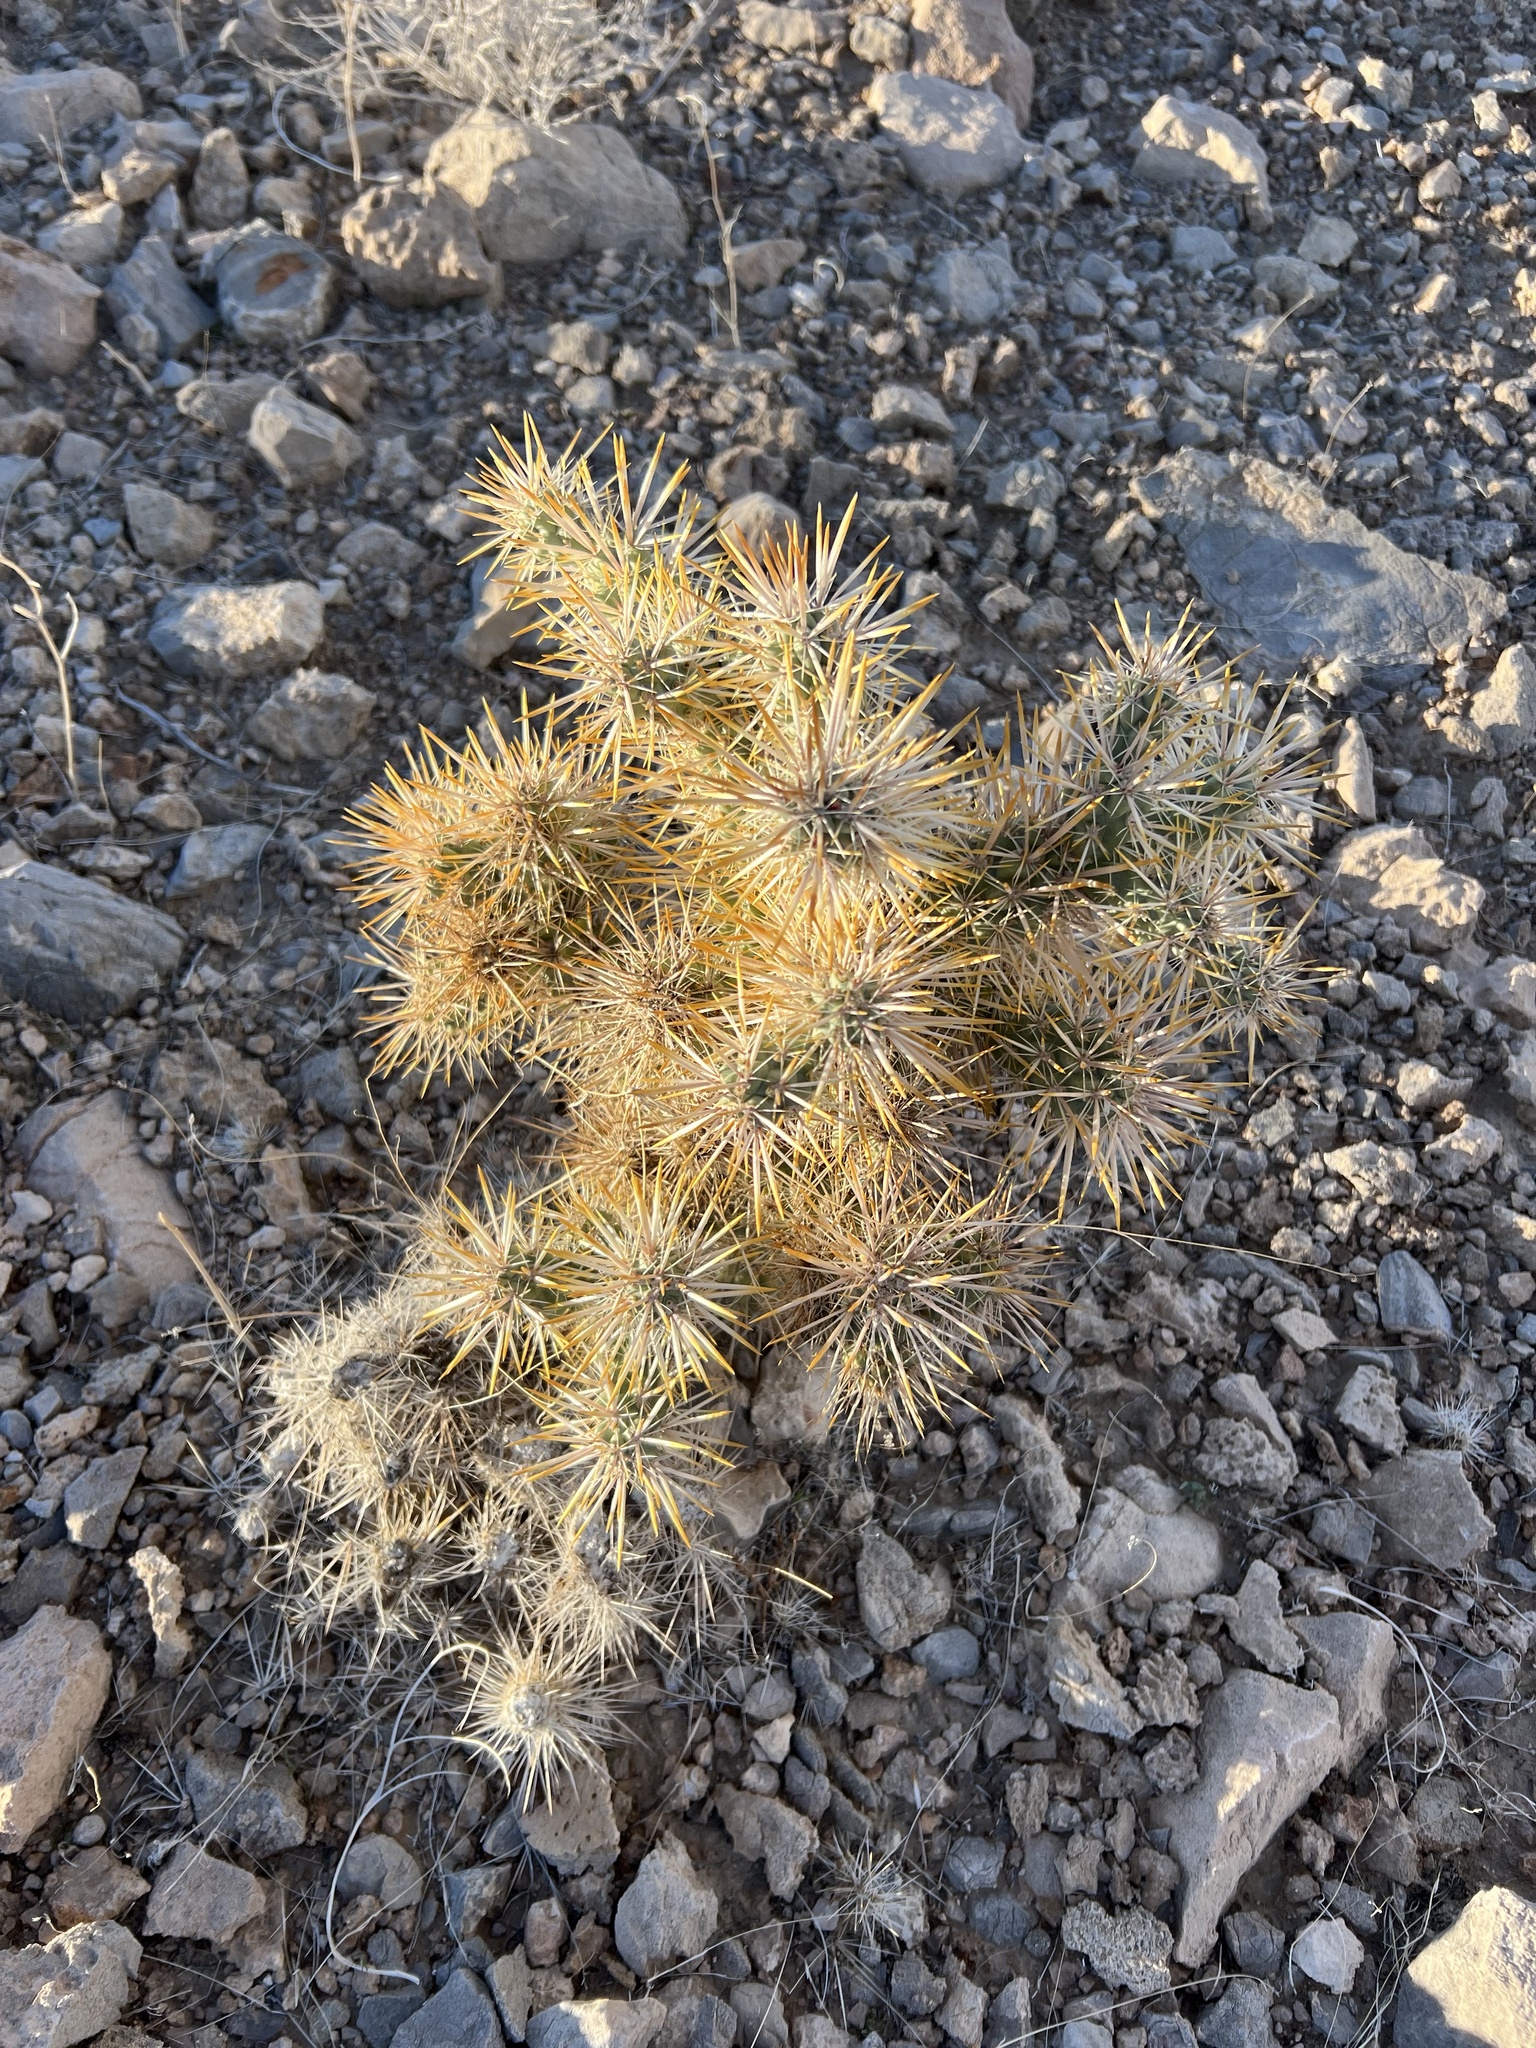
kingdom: Plantae
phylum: Tracheophyta
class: Magnoliopsida
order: Caryophyllales
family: Cactaceae
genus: Cylindropuntia
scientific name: Cylindropuntia echinocarpa
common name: Ground cholla
